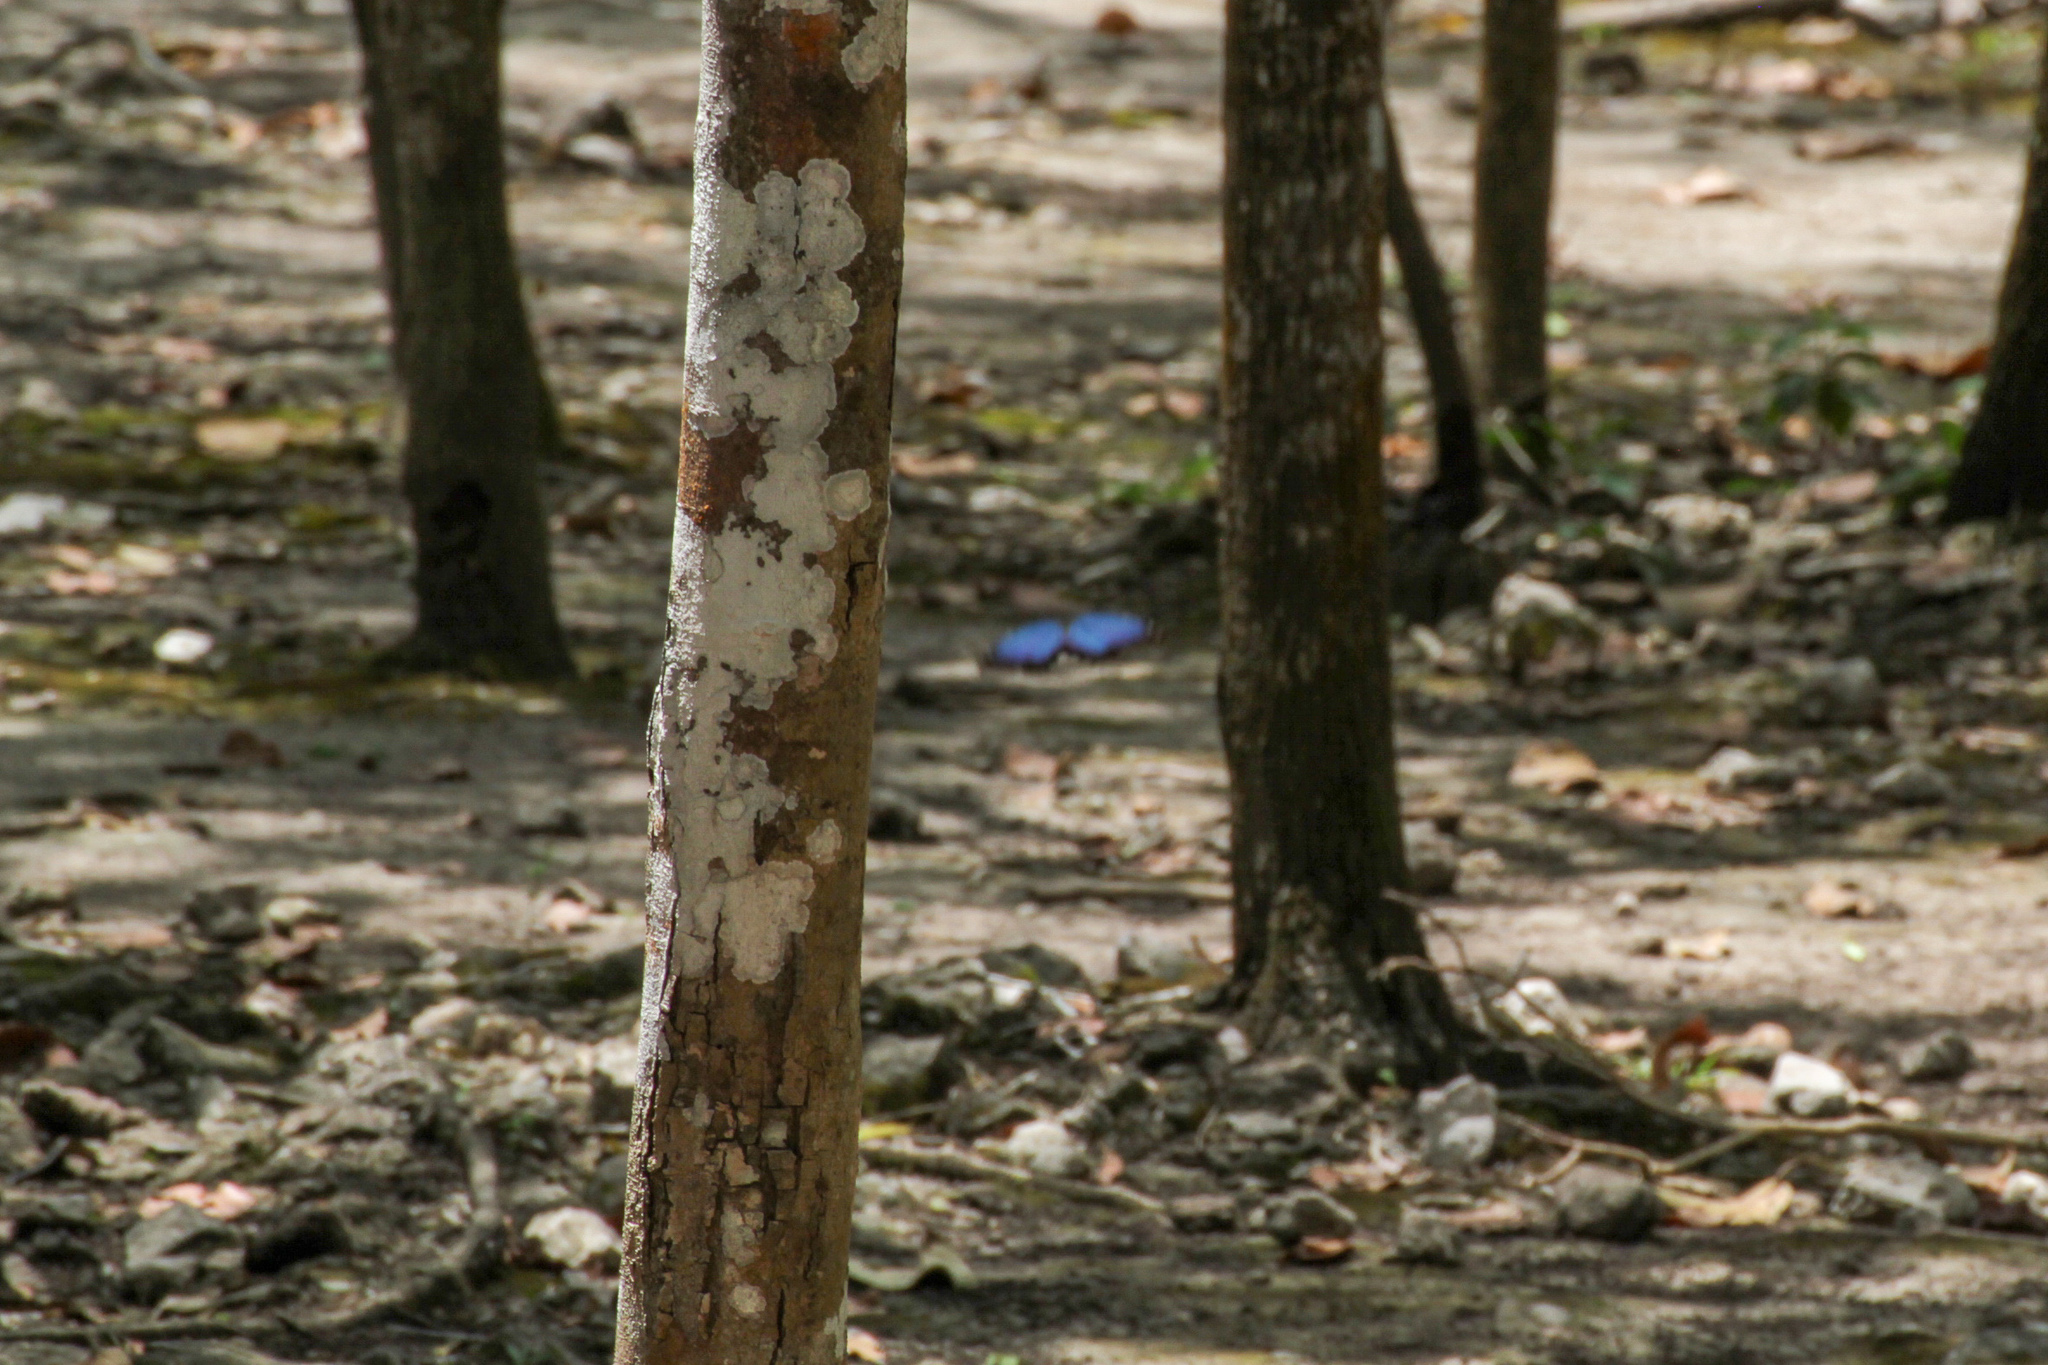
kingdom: Animalia
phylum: Arthropoda
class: Insecta
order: Lepidoptera
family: Nymphalidae
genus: Morpho
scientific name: Morpho helenor
